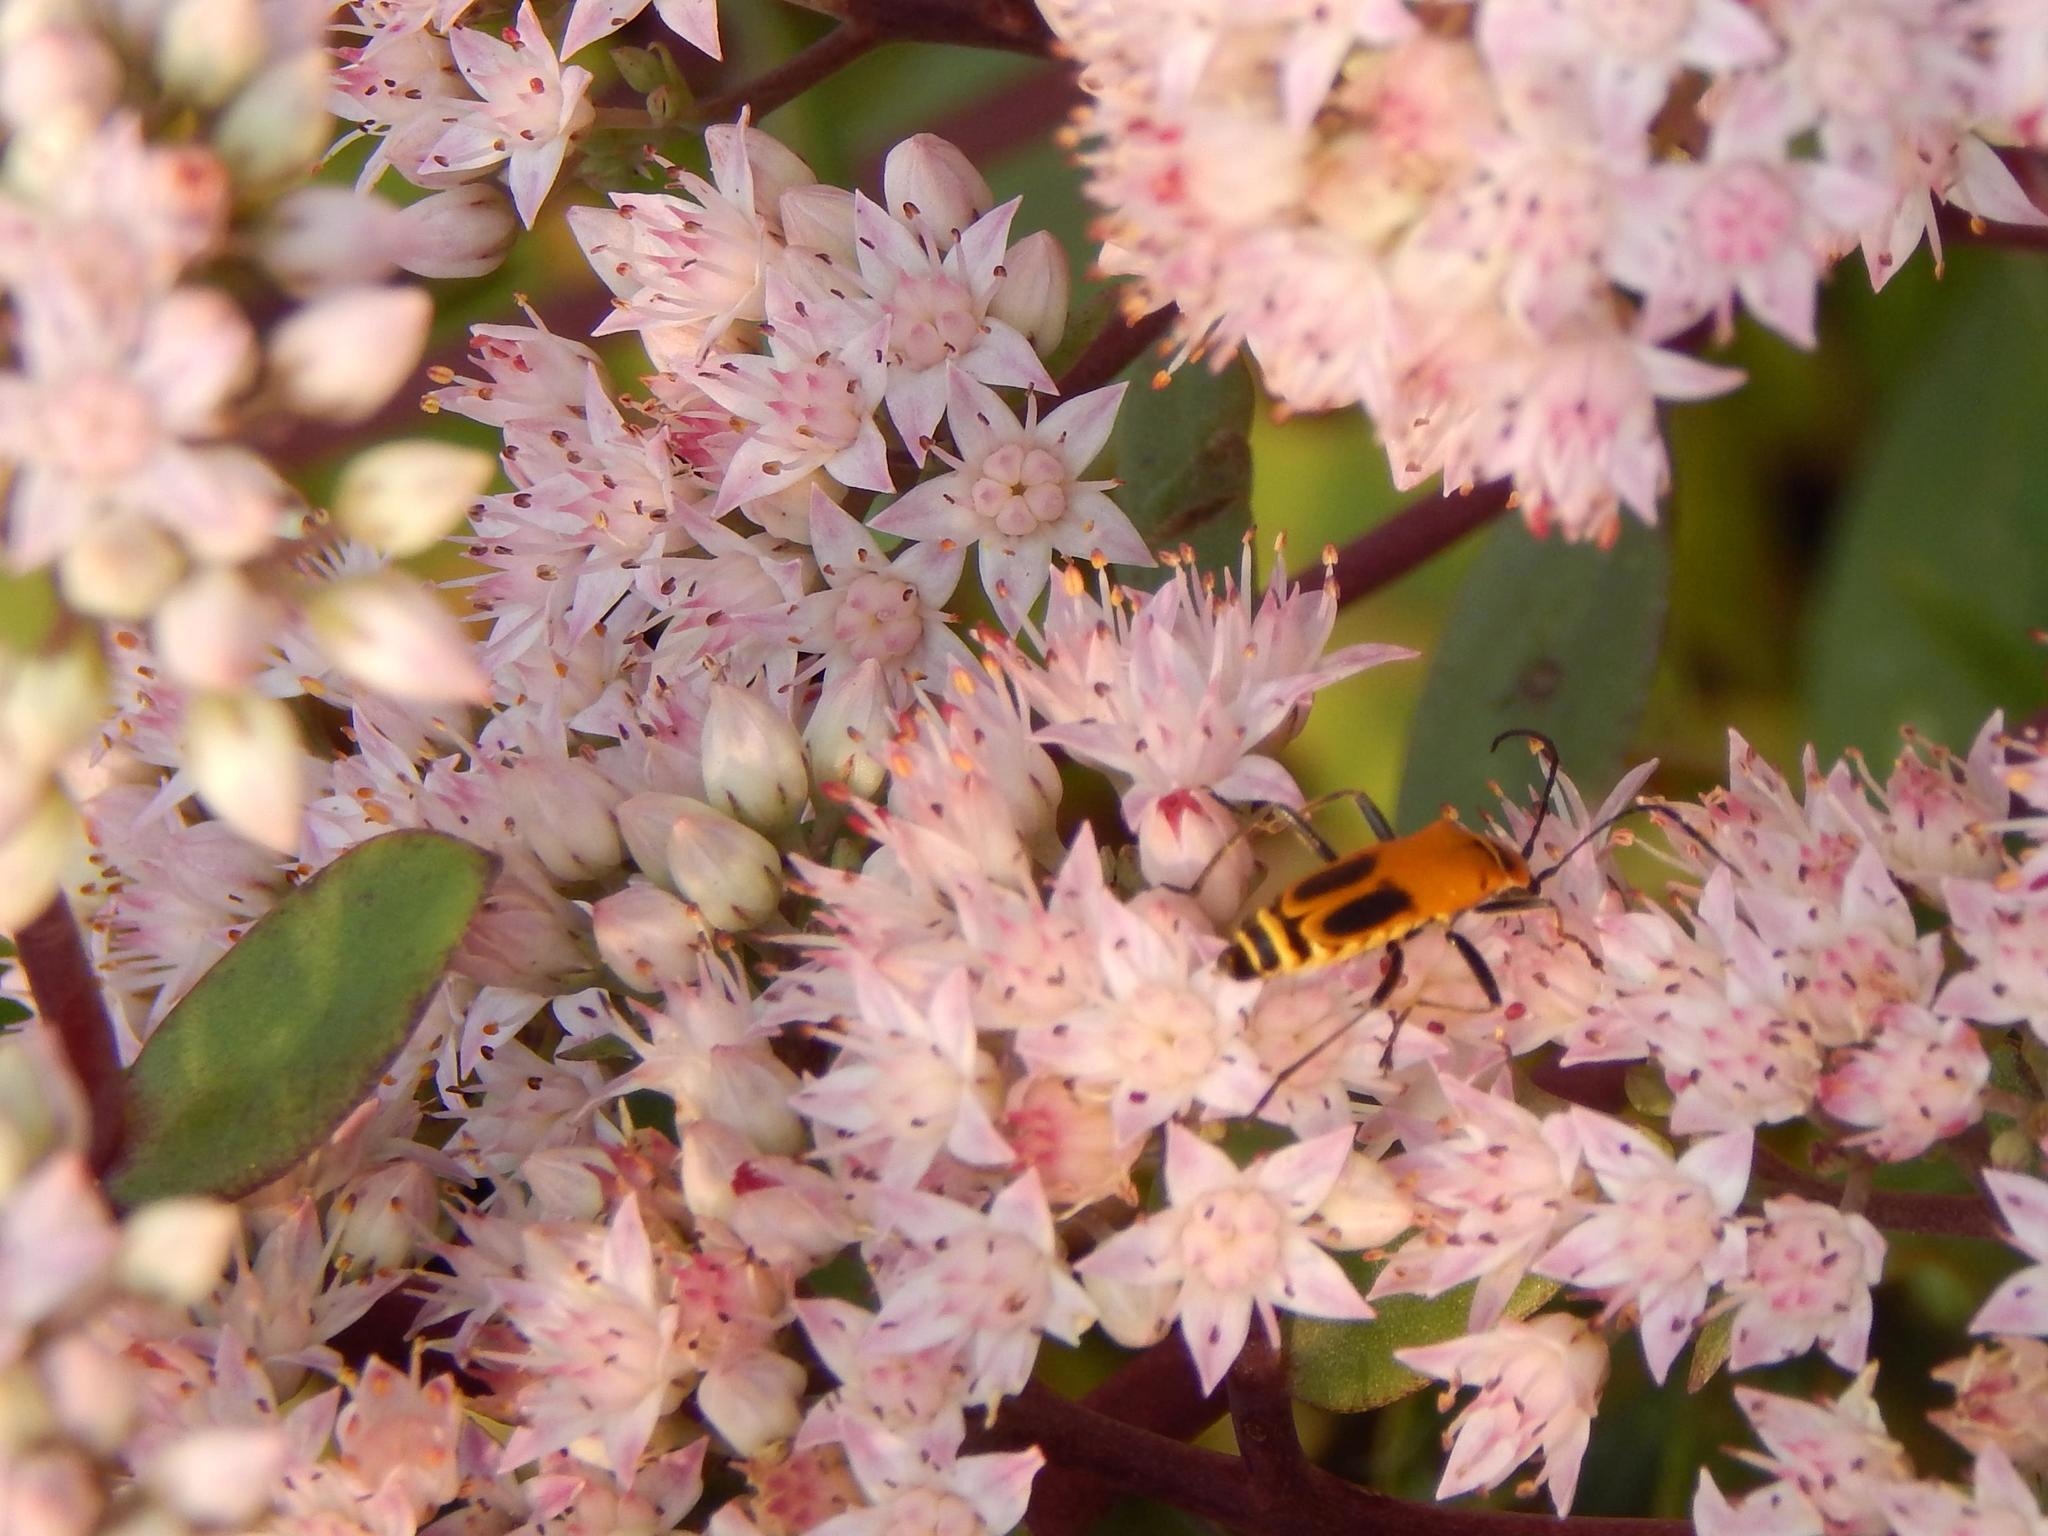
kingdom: Animalia
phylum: Arthropoda
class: Insecta
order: Coleoptera
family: Cantharidae
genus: Chauliognathus
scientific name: Chauliognathus pensylvanicus
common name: Goldenrod soldier beetle
